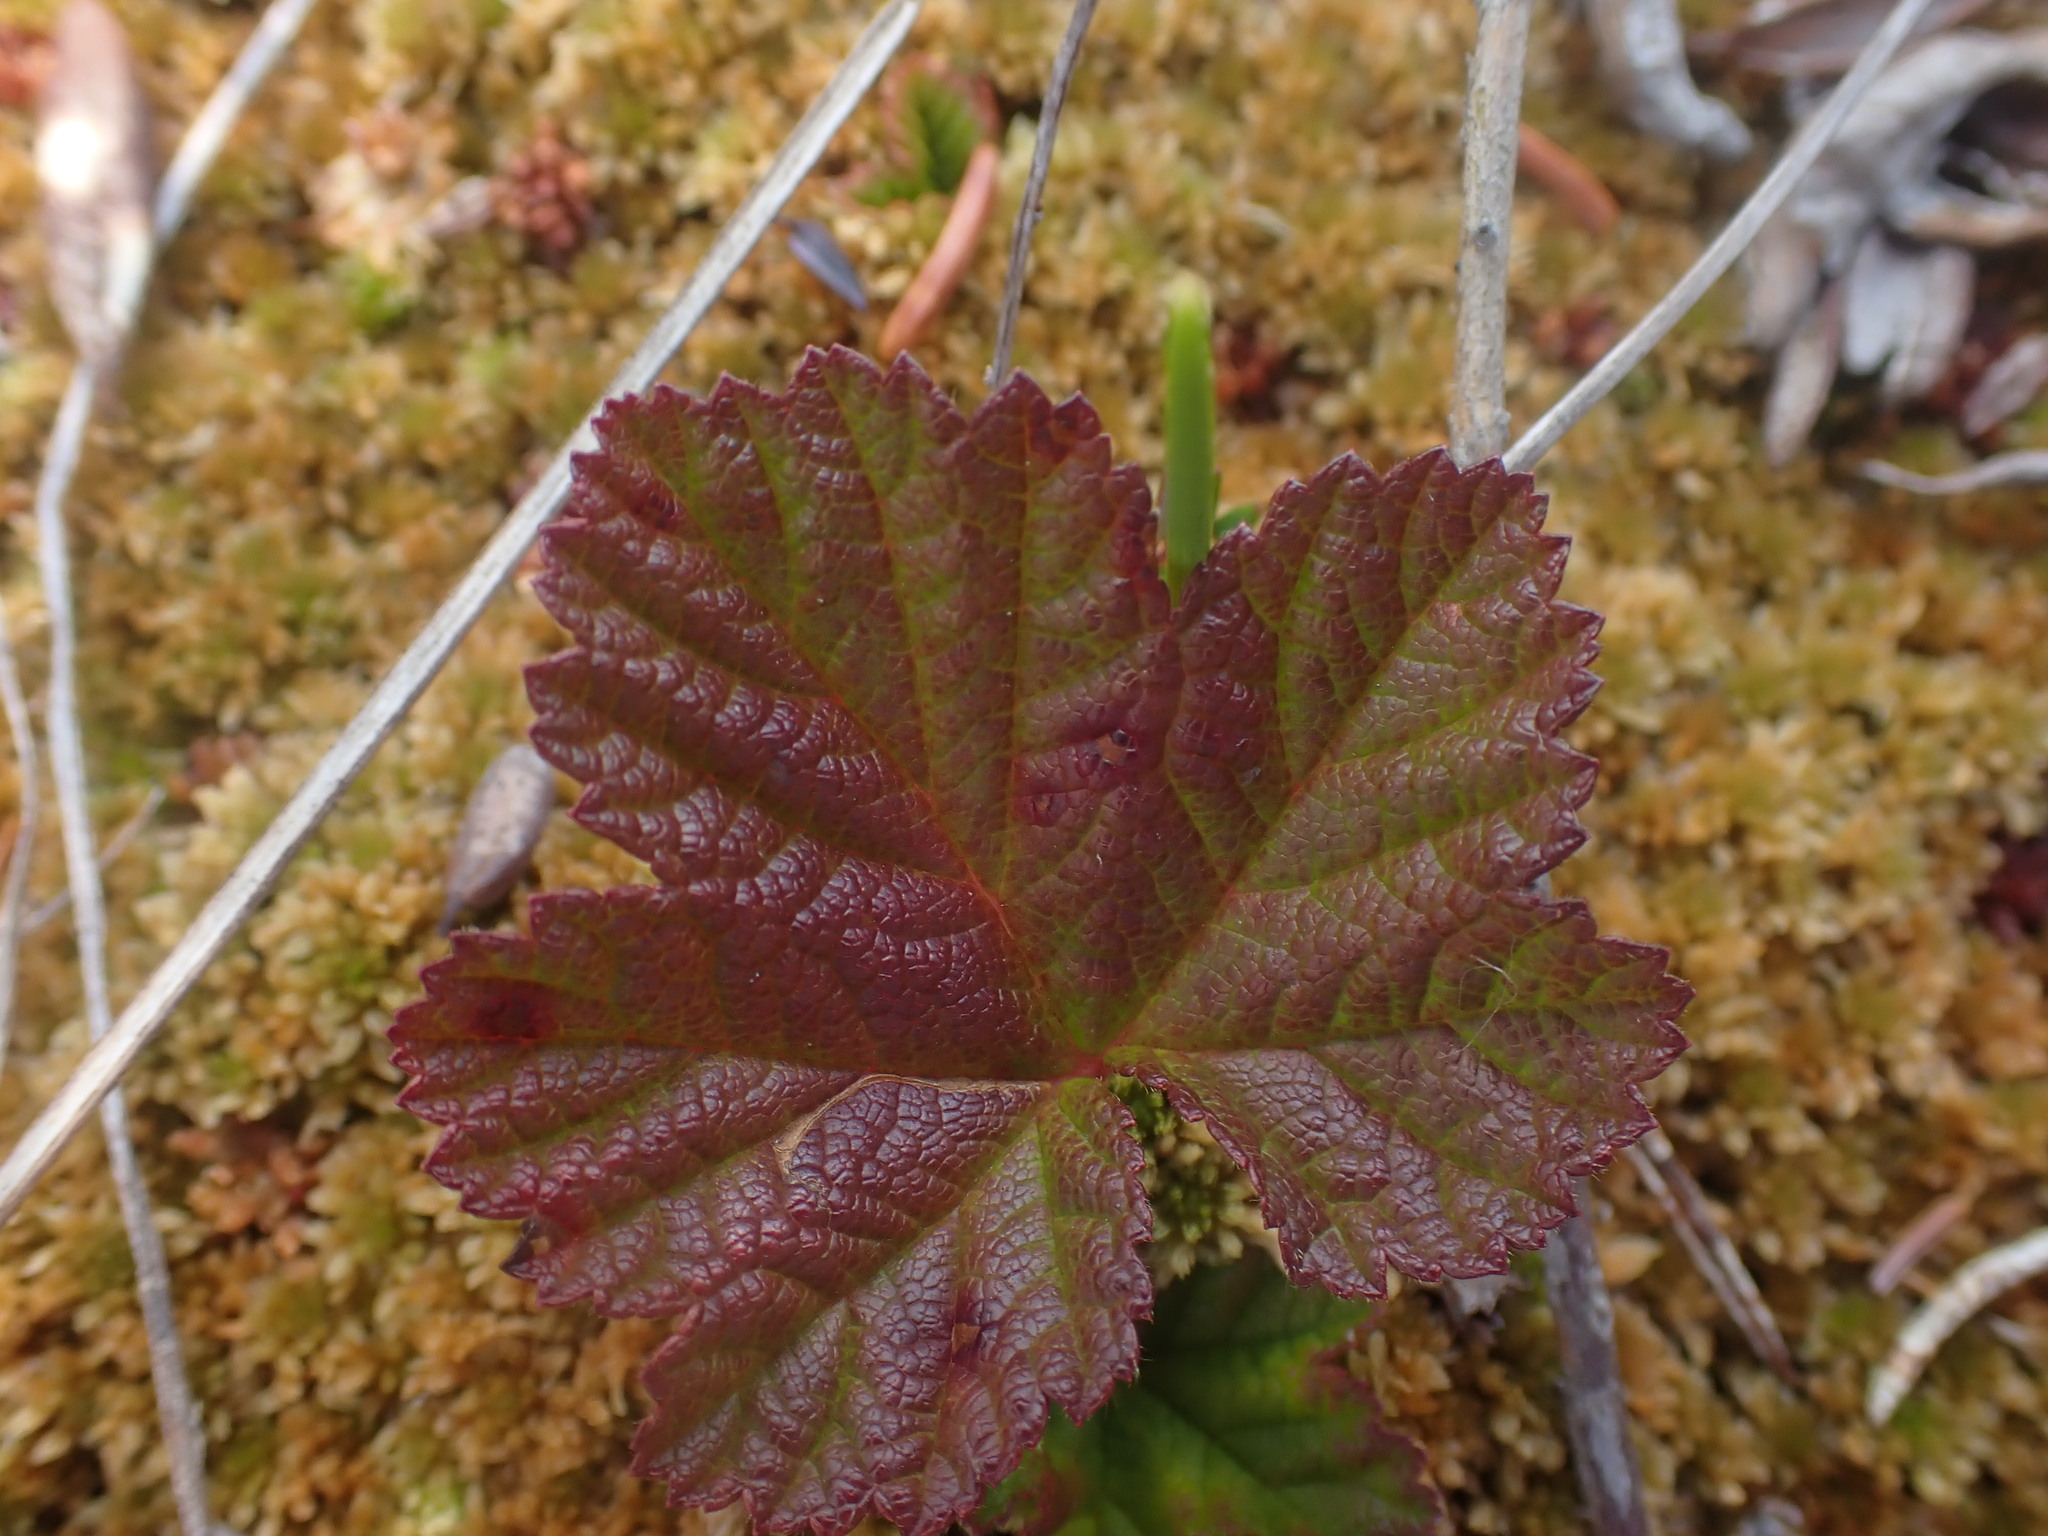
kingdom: Plantae
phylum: Tracheophyta
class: Magnoliopsida
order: Rosales
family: Rosaceae
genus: Rubus
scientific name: Rubus chamaemorus
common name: Cloudberry
